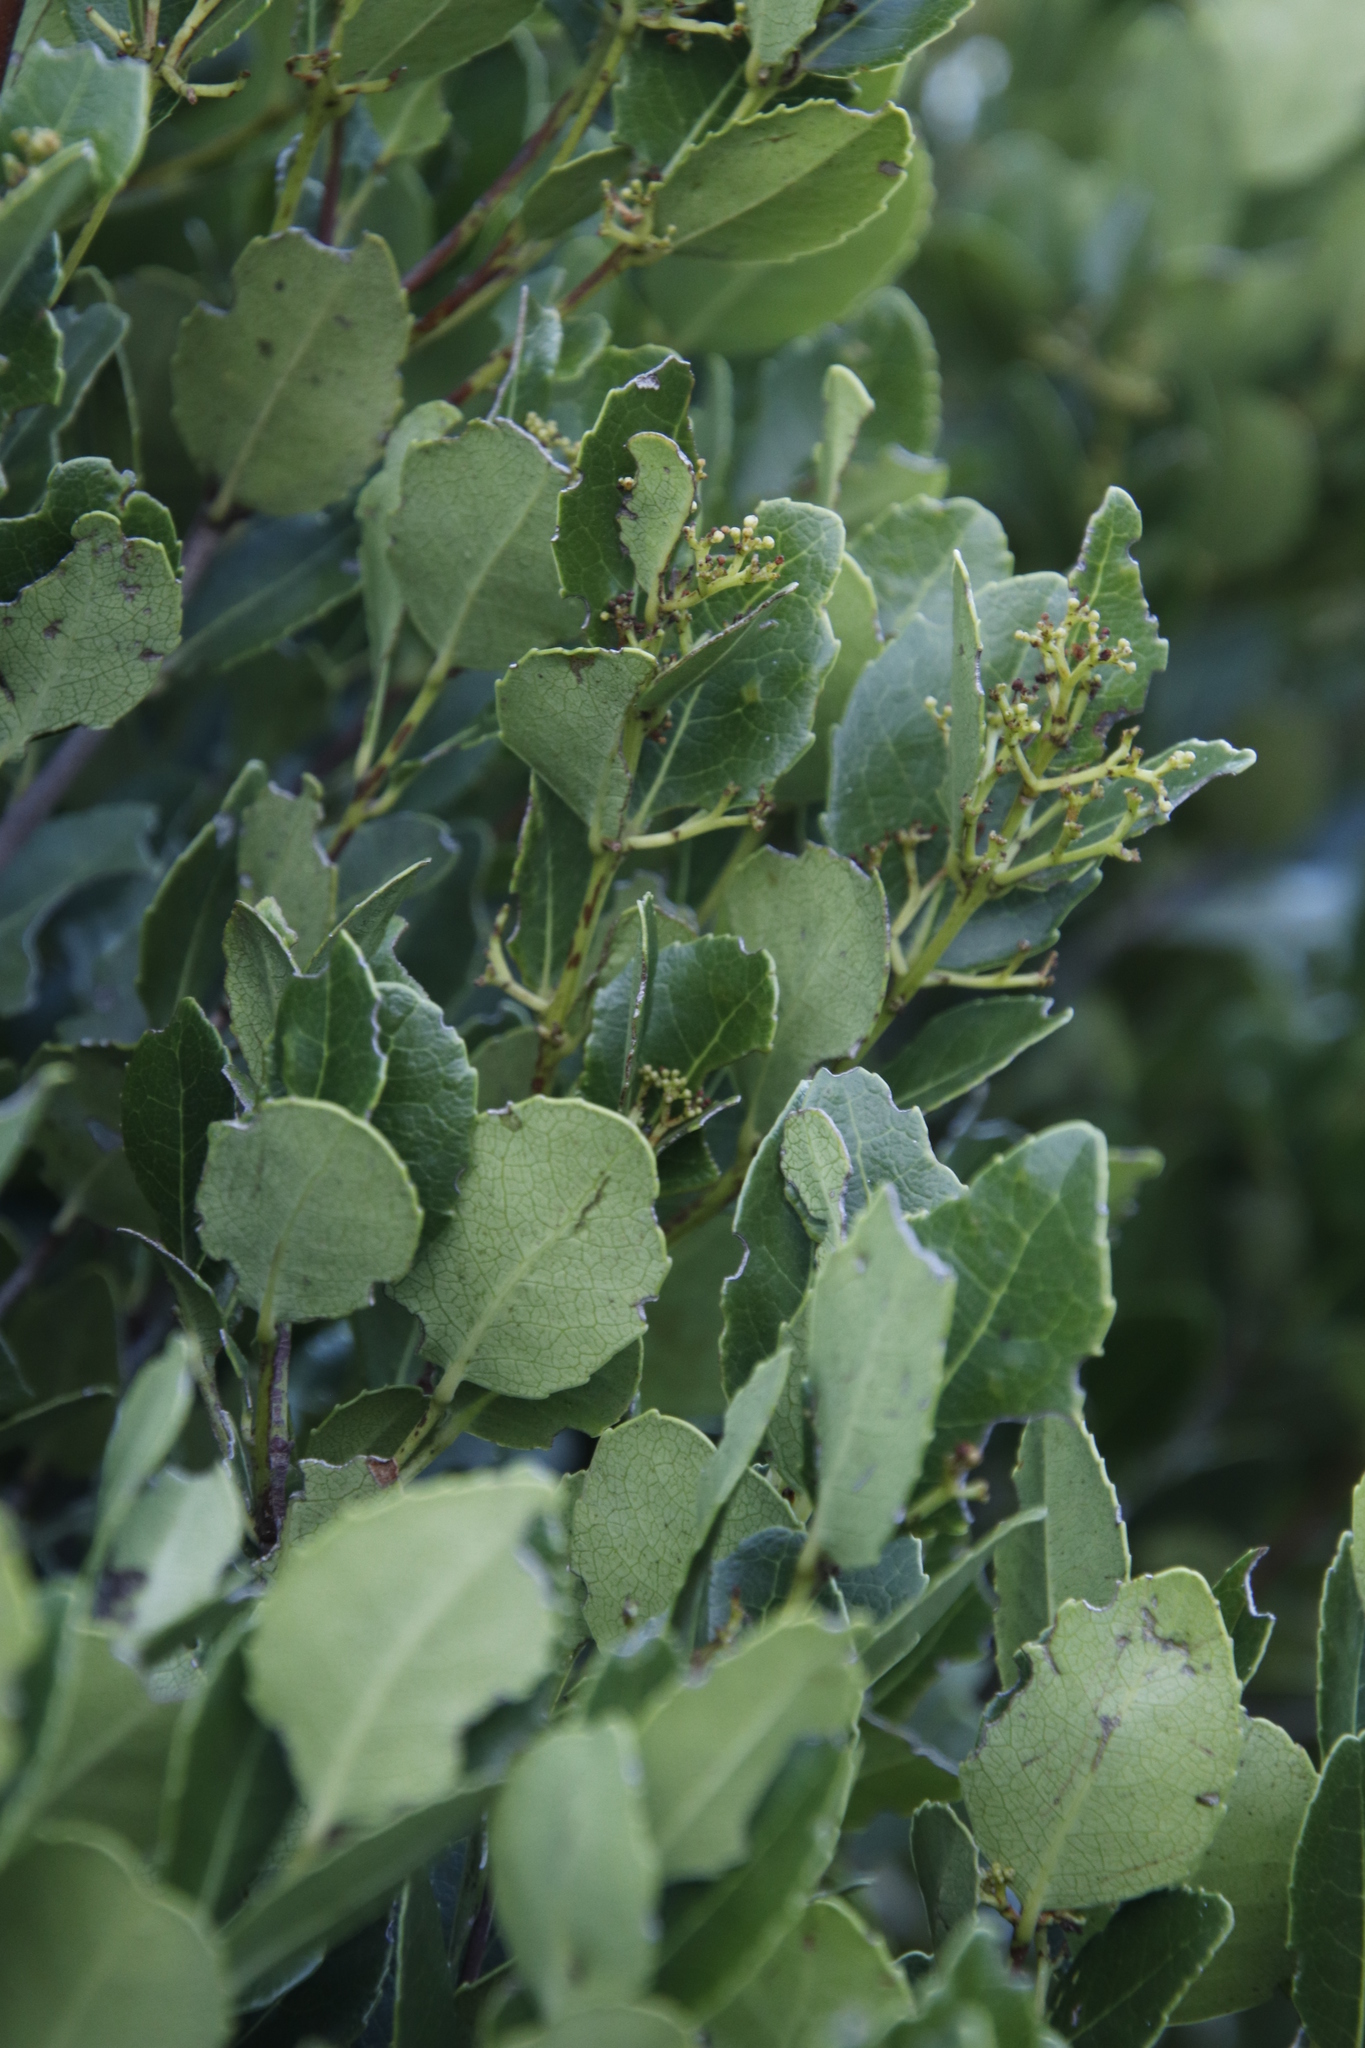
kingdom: Plantae
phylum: Tracheophyta
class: Magnoliopsida
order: Lamiales
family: Oleaceae
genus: Olea
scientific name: Olea capensis
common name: Black ironwood
